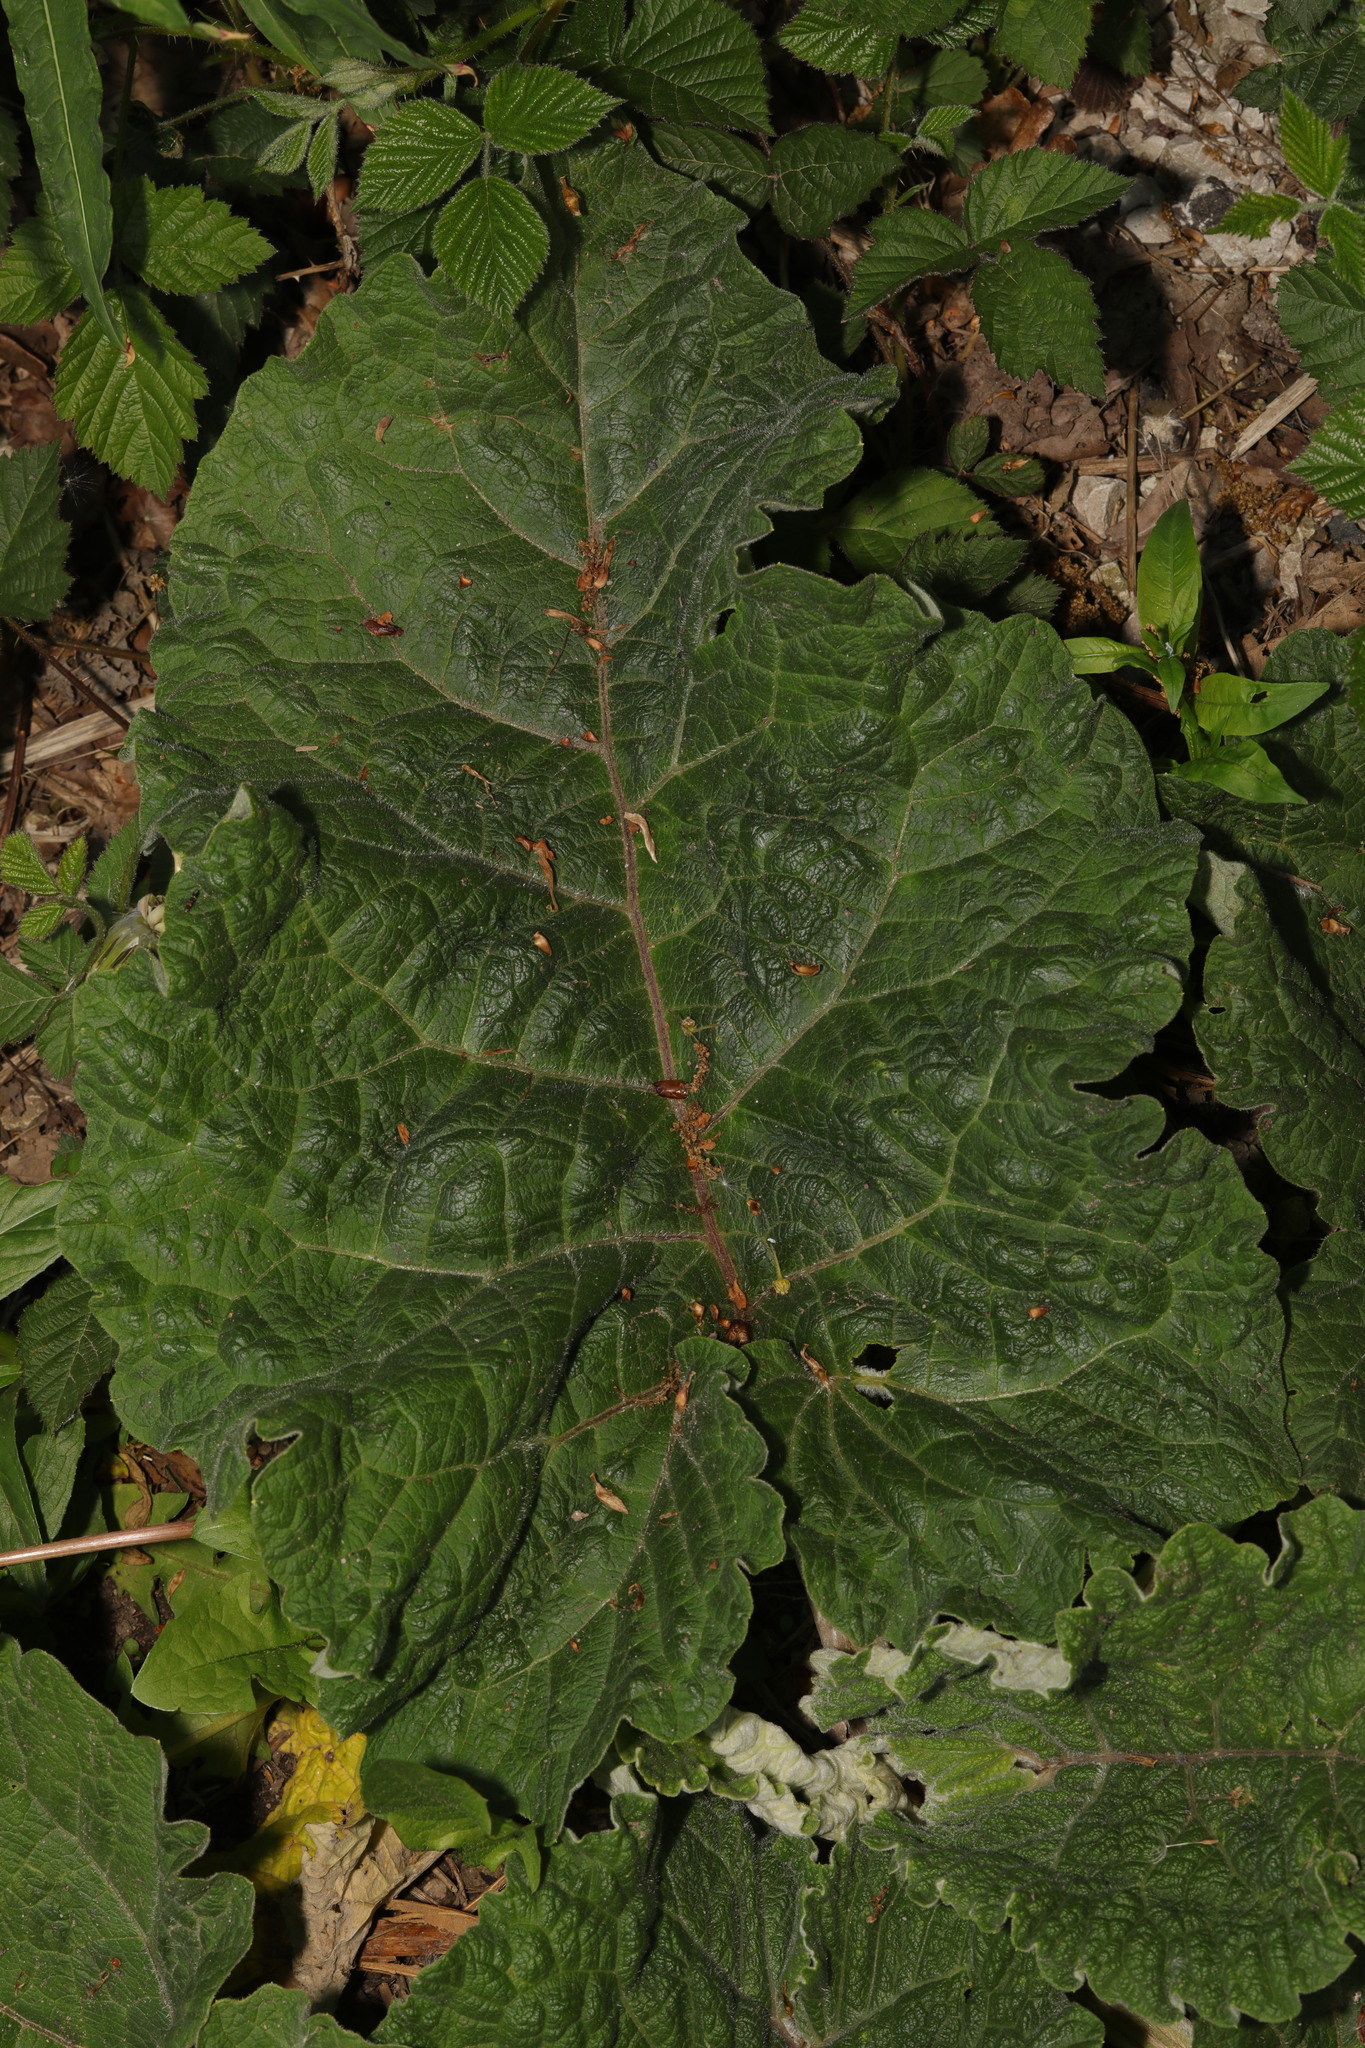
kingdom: Plantae
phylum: Tracheophyta
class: Magnoliopsida
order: Asterales
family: Asteraceae
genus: Arctium
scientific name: Arctium minus
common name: Lesser burdock
